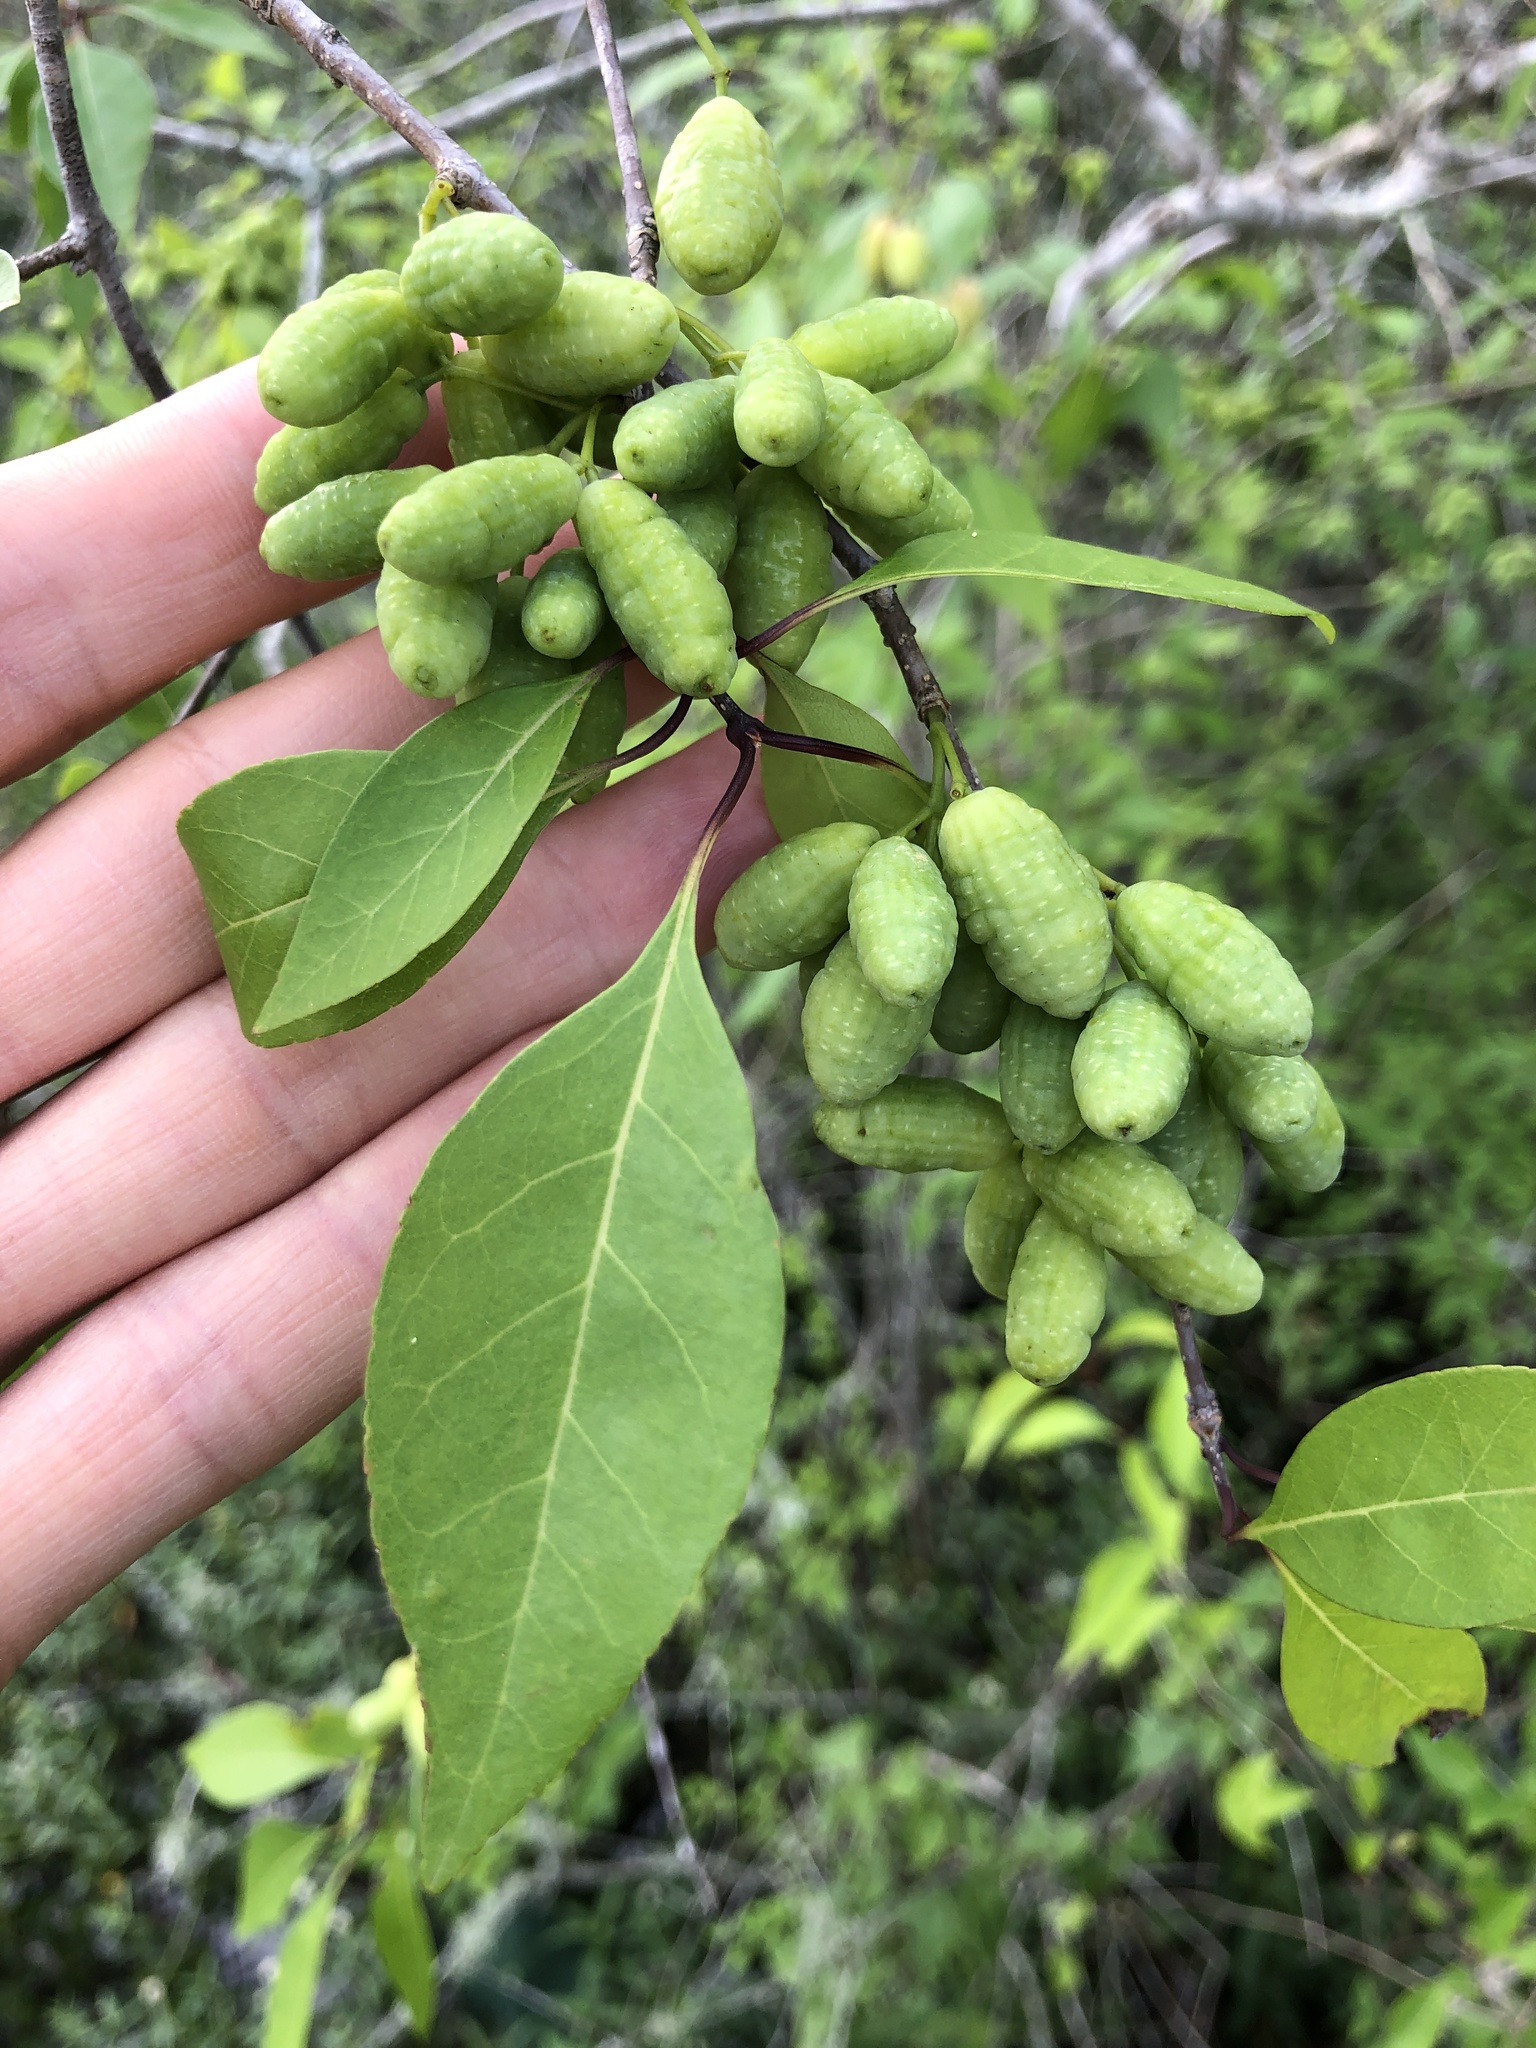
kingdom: Plantae
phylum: Tracheophyta
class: Magnoliopsida
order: Lamiales
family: Oleaceae
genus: Forestiera
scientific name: Forestiera acuminata
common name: Swamp-privet
